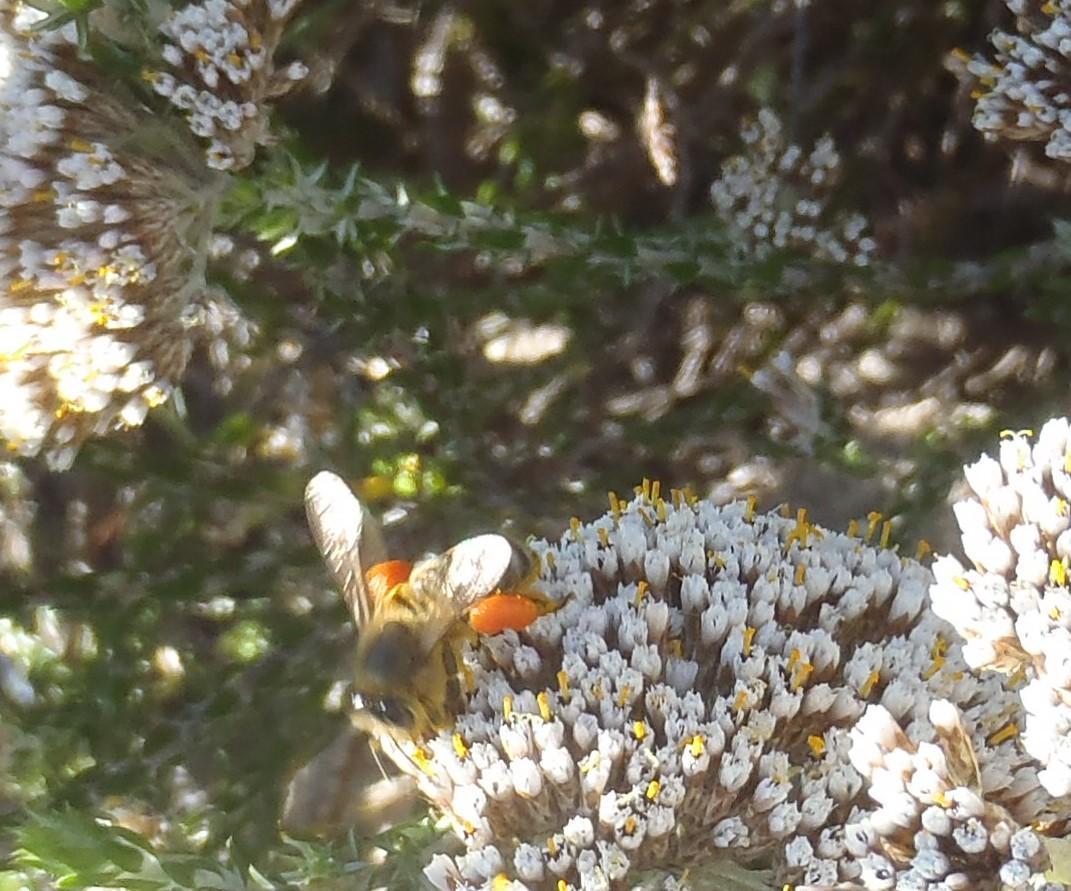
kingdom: Animalia
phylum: Arthropoda
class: Insecta
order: Hymenoptera
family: Apidae
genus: Apis
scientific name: Apis mellifera
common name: Honey bee
